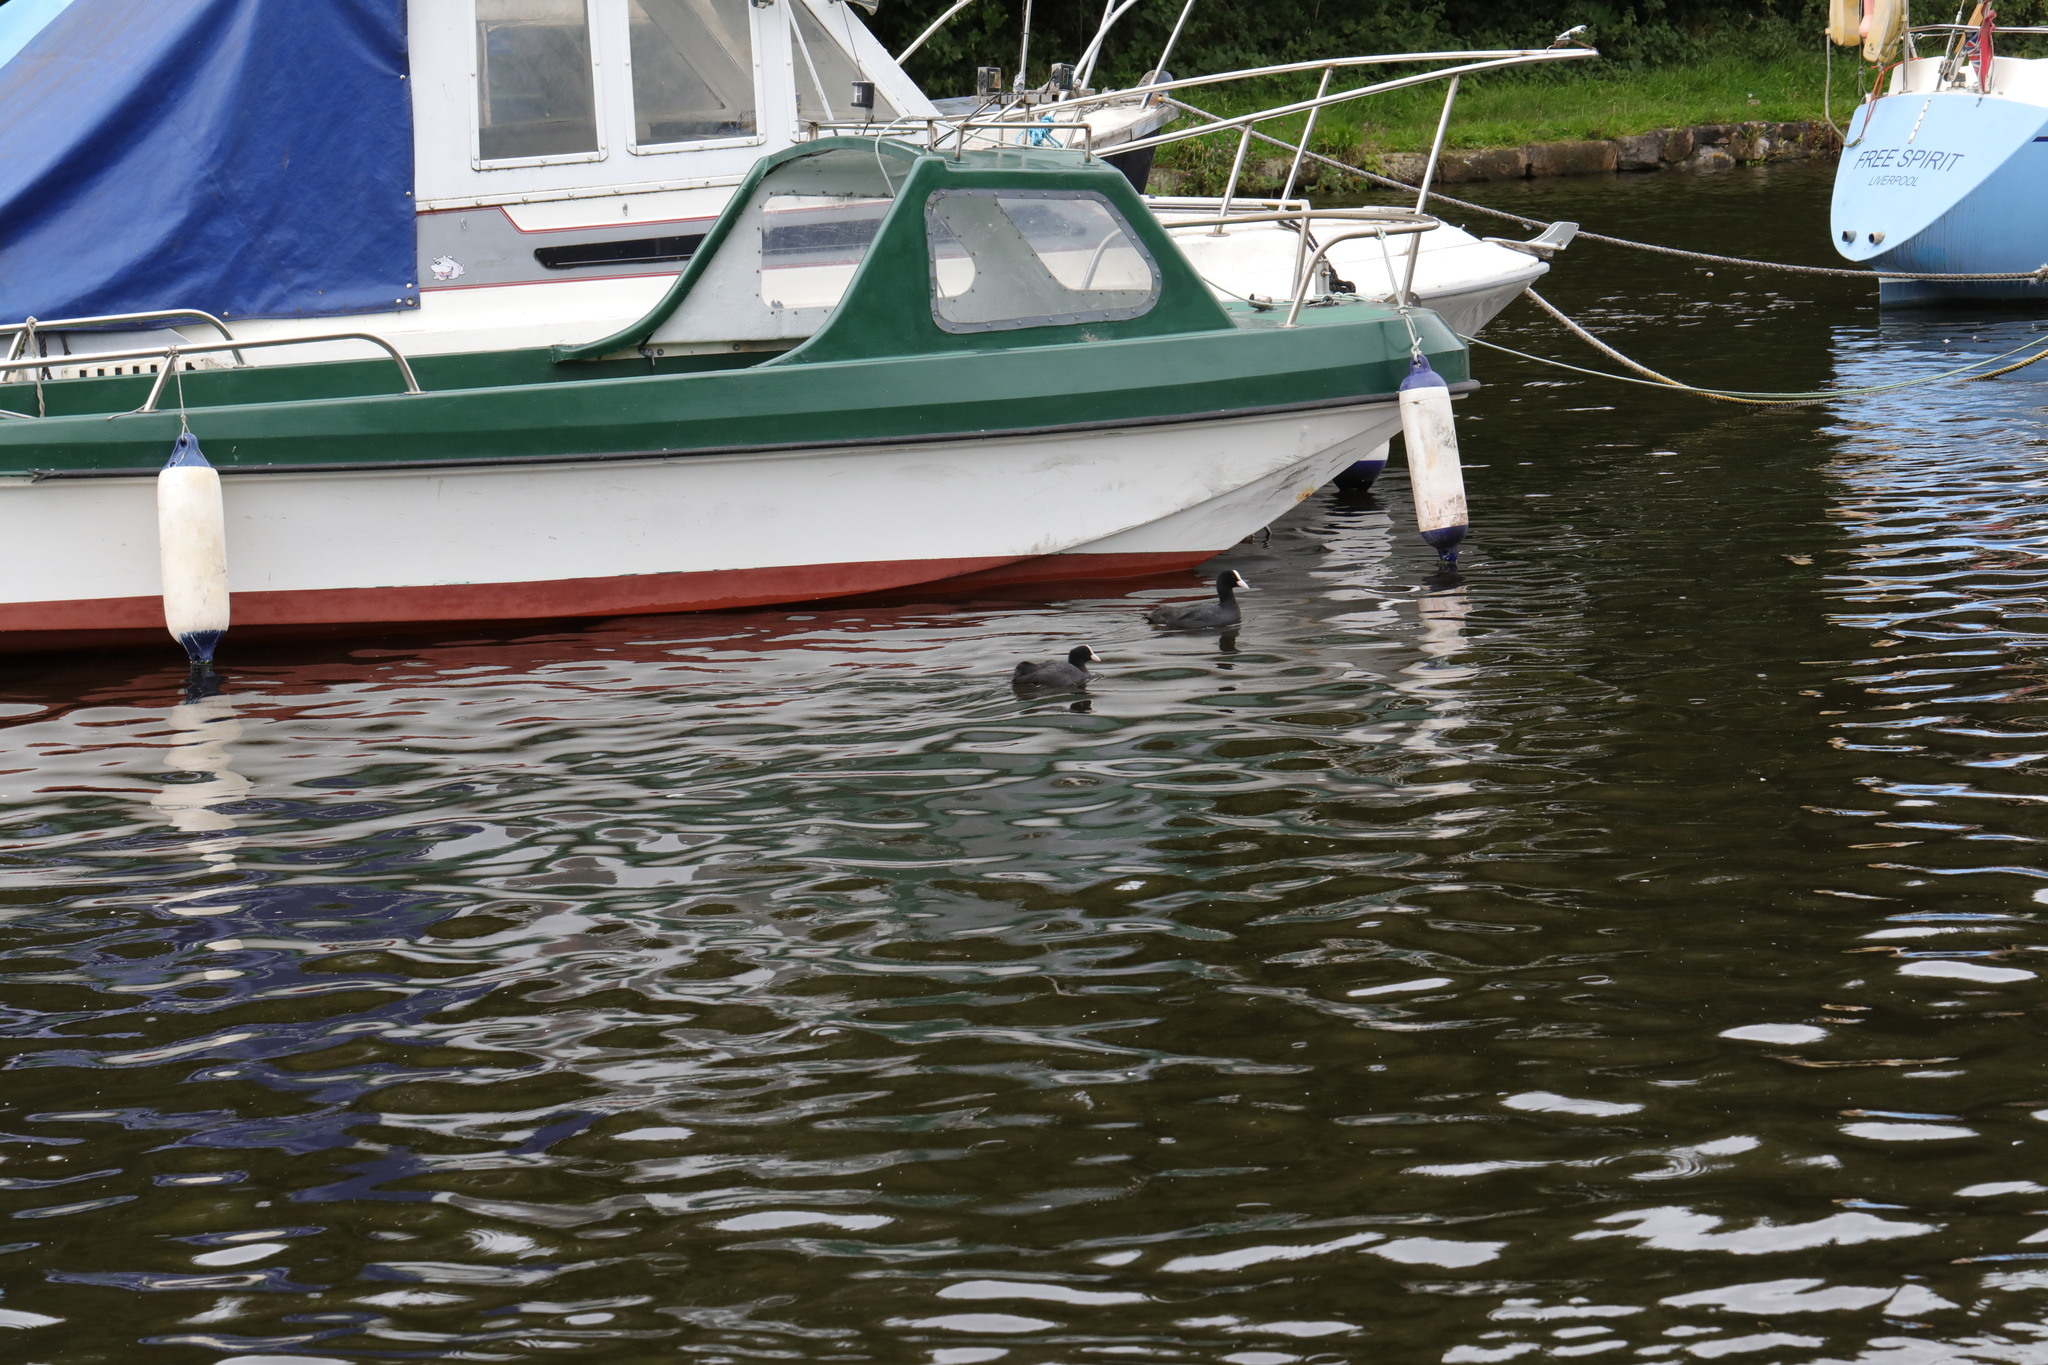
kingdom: Animalia
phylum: Chordata
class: Aves
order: Gruiformes
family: Rallidae
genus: Fulica
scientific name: Fulica atra
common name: Eurasian coot
